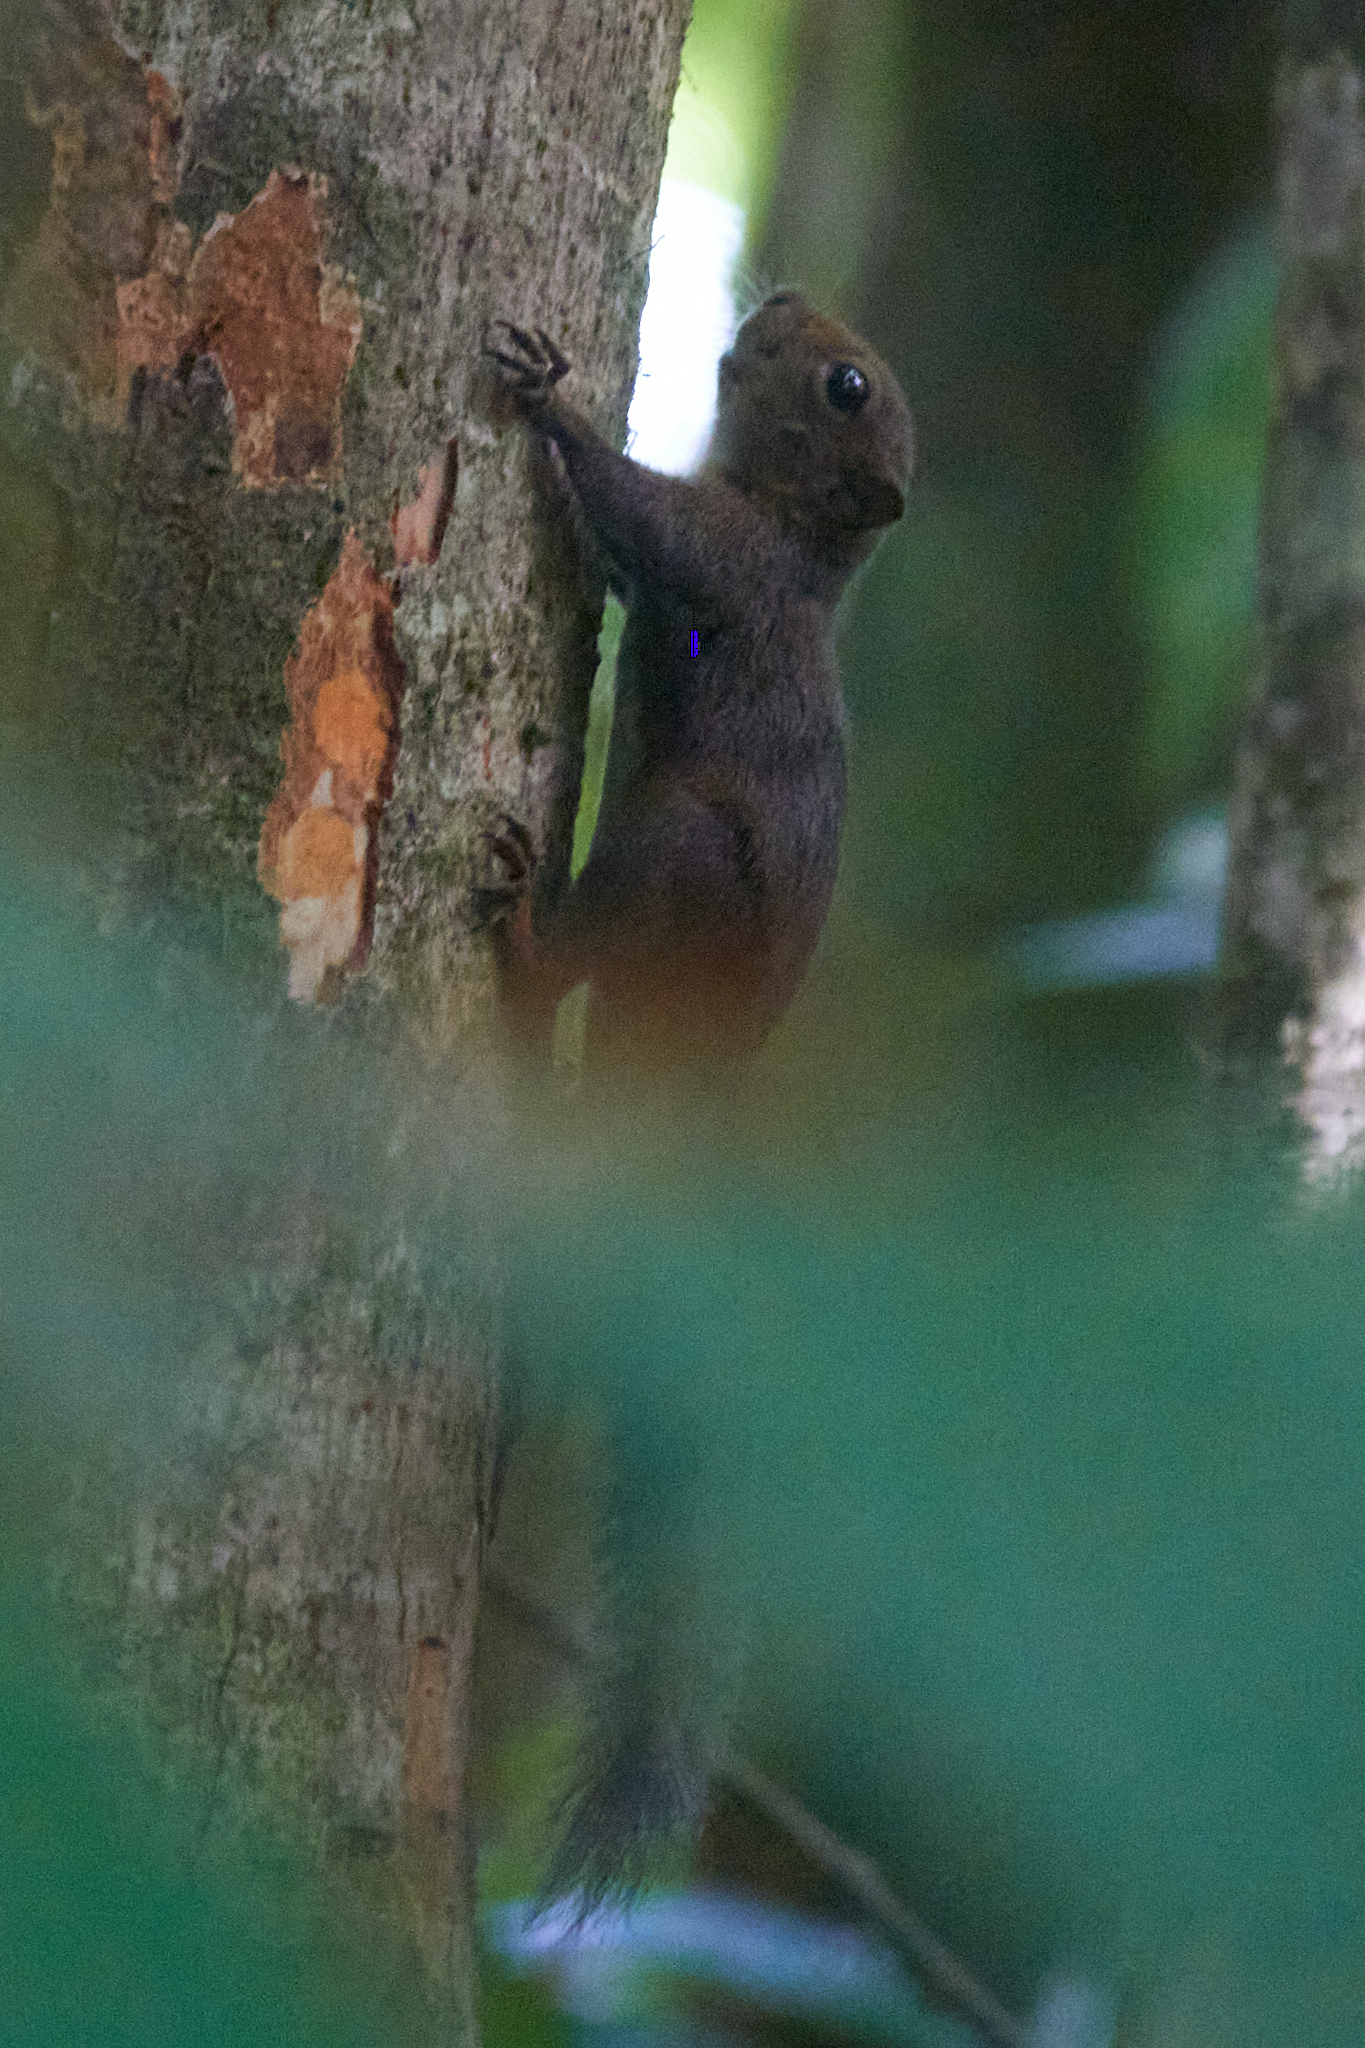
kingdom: Animalia
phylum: Chordata
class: Mammalia
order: Rodentia
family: Sciuridae
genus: Microsciurus
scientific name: Microsciurus alfari
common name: Central american dwarf squirrel
